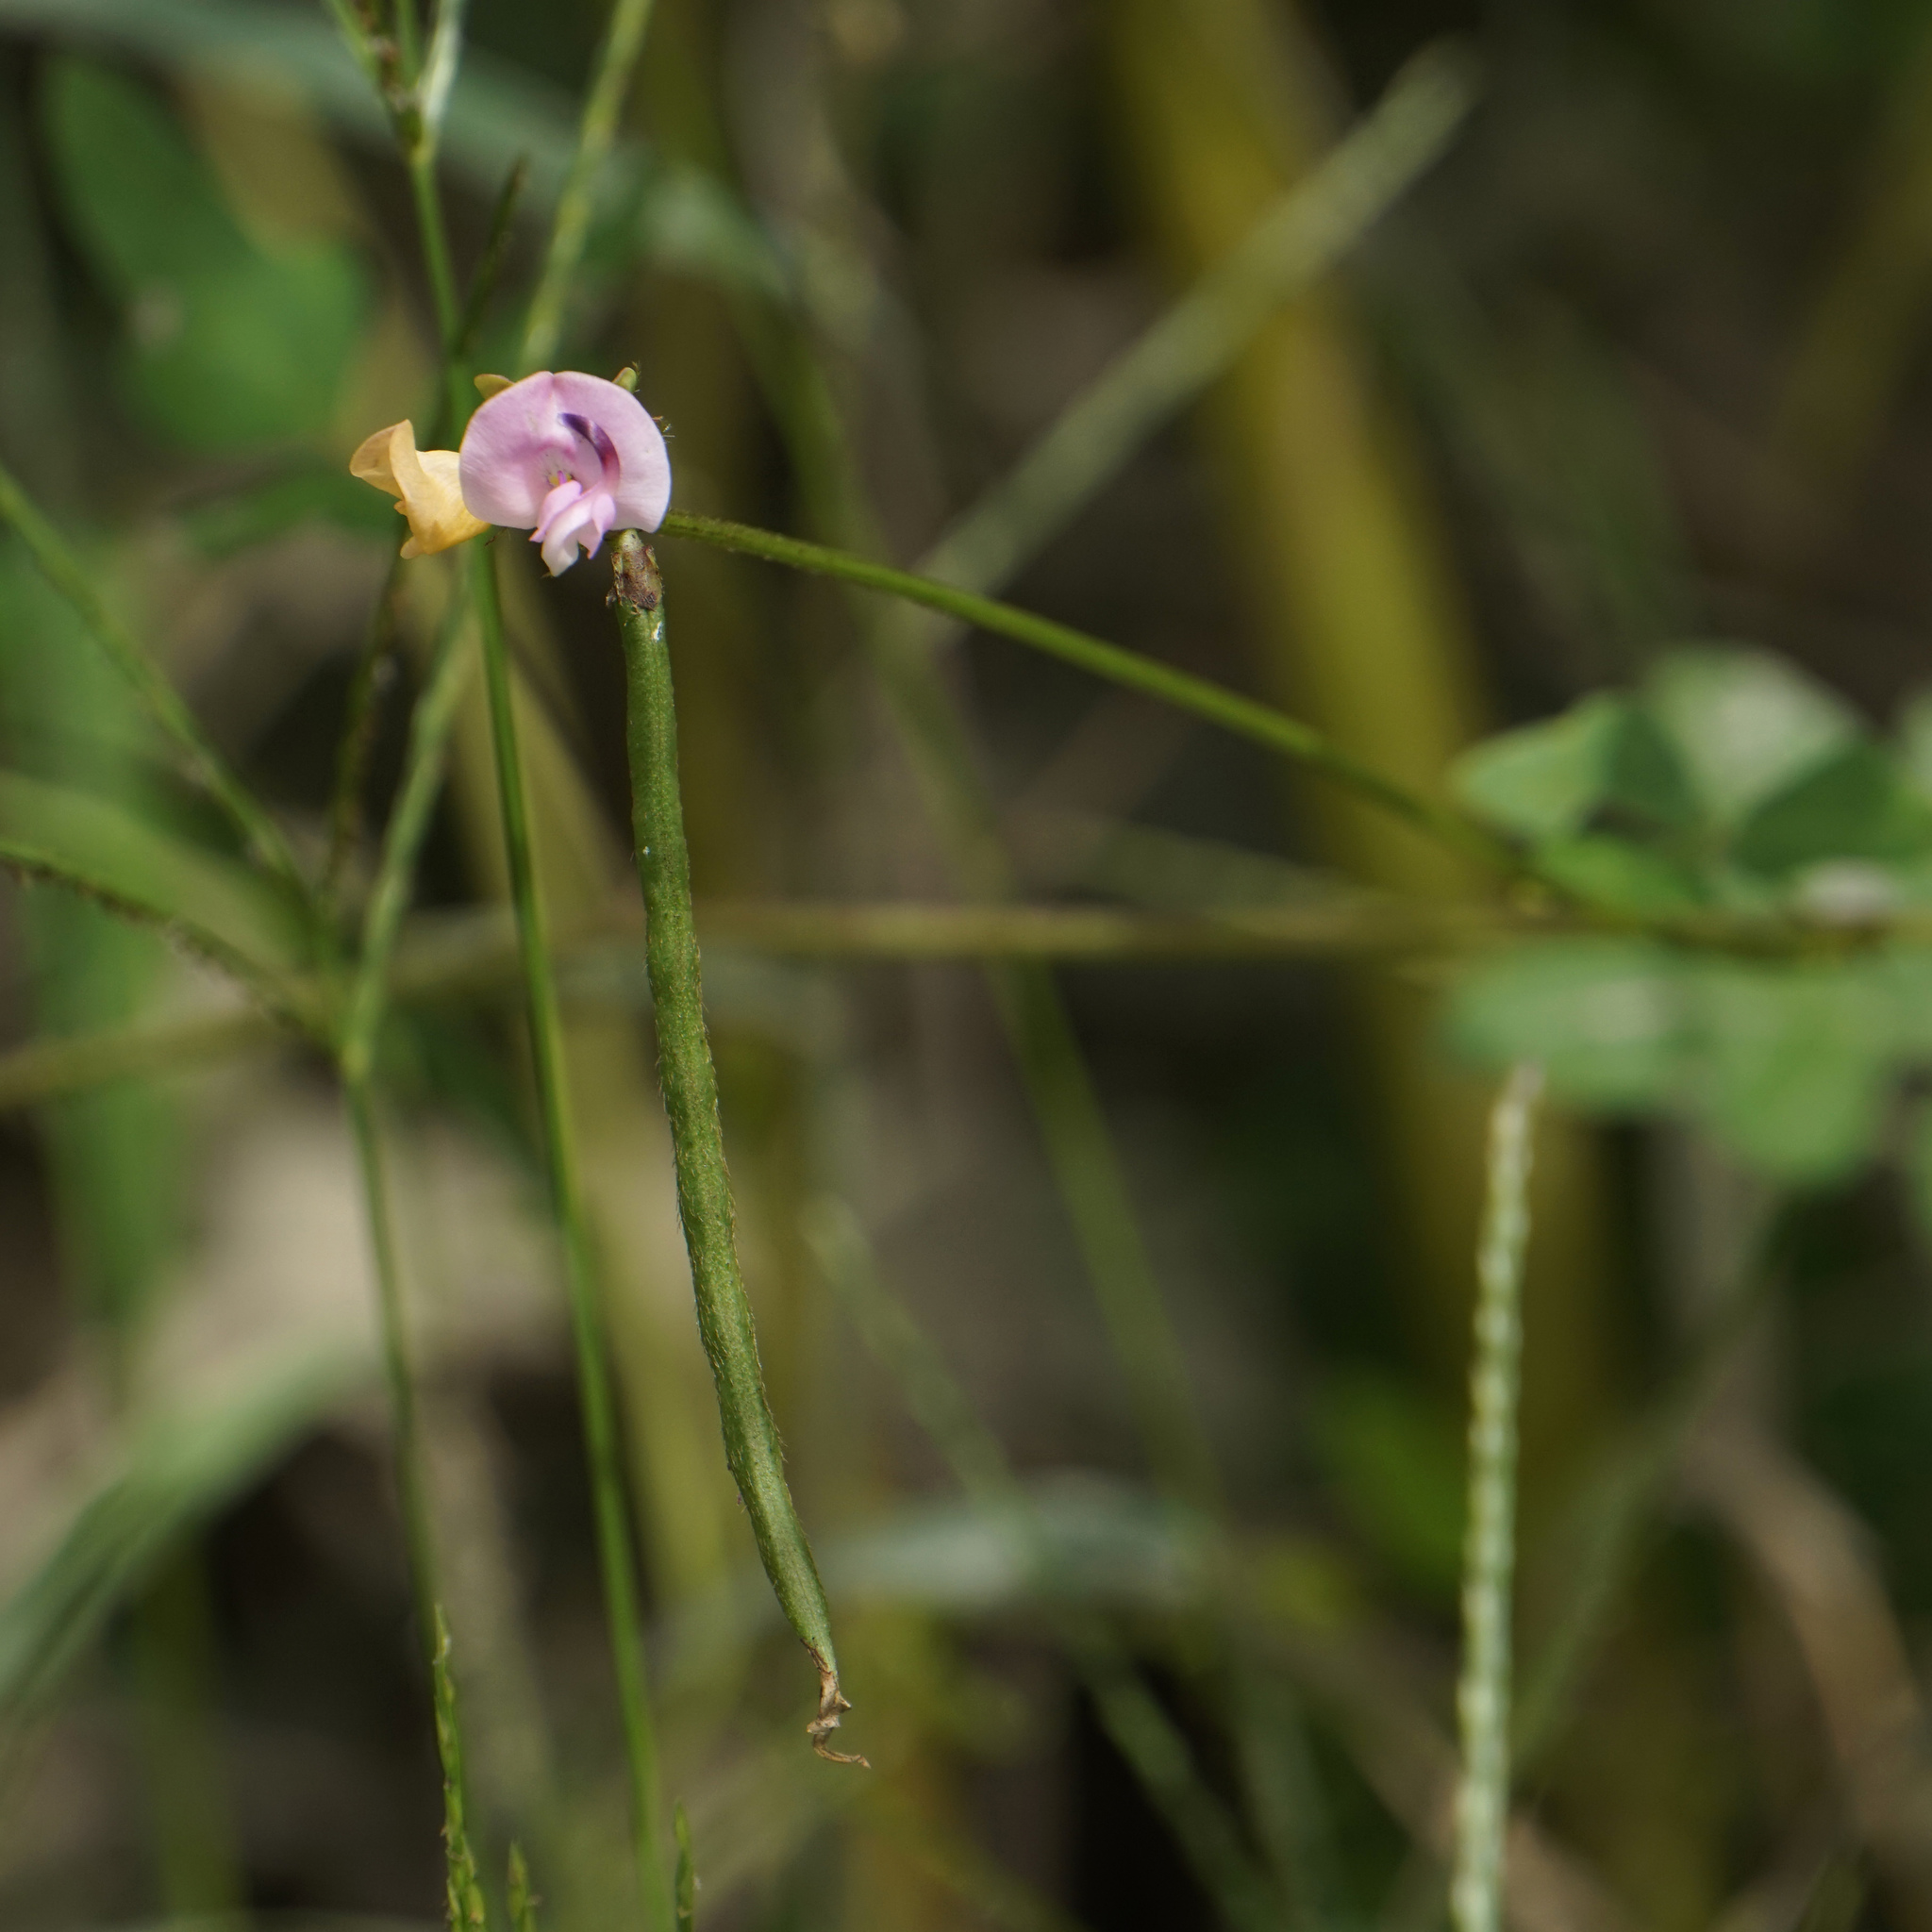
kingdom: Plantae
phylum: Tracheophyta
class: Magnoliopsida
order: Fabales
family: Fabaceae
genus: Strophostyles
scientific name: Strophostyles helvola
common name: Trailing wild bean
